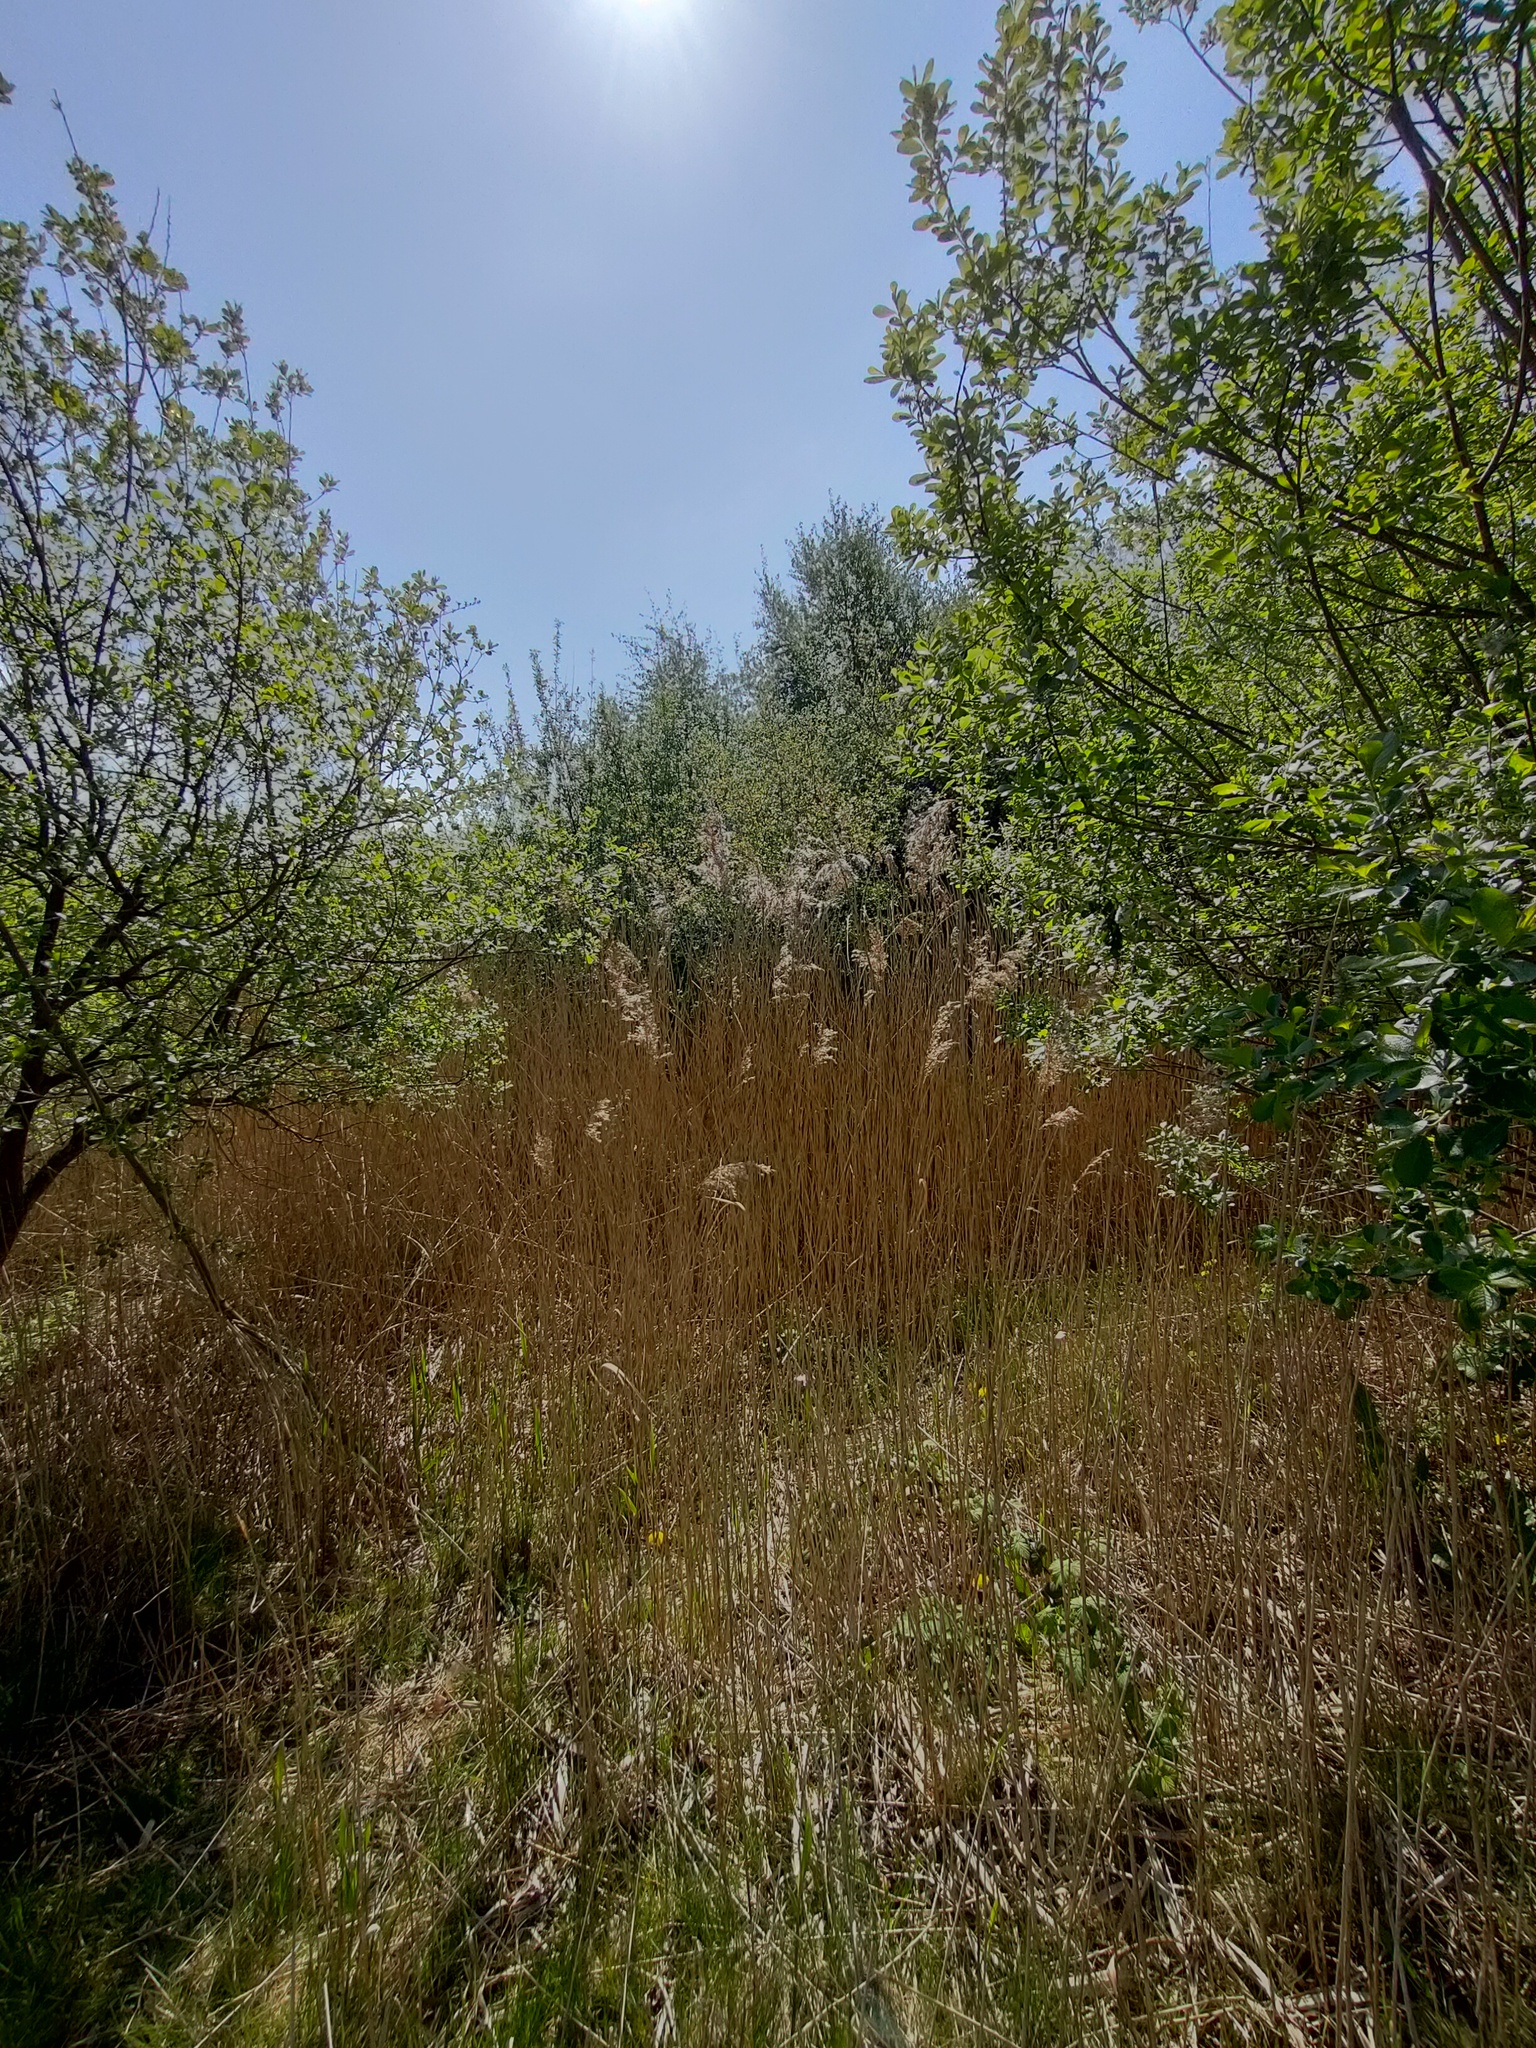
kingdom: Plantae
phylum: Tracheophyta
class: Liliopsida
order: Poales
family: Poaceae
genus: Phragmites
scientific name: Phragmites australis
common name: Common reed
